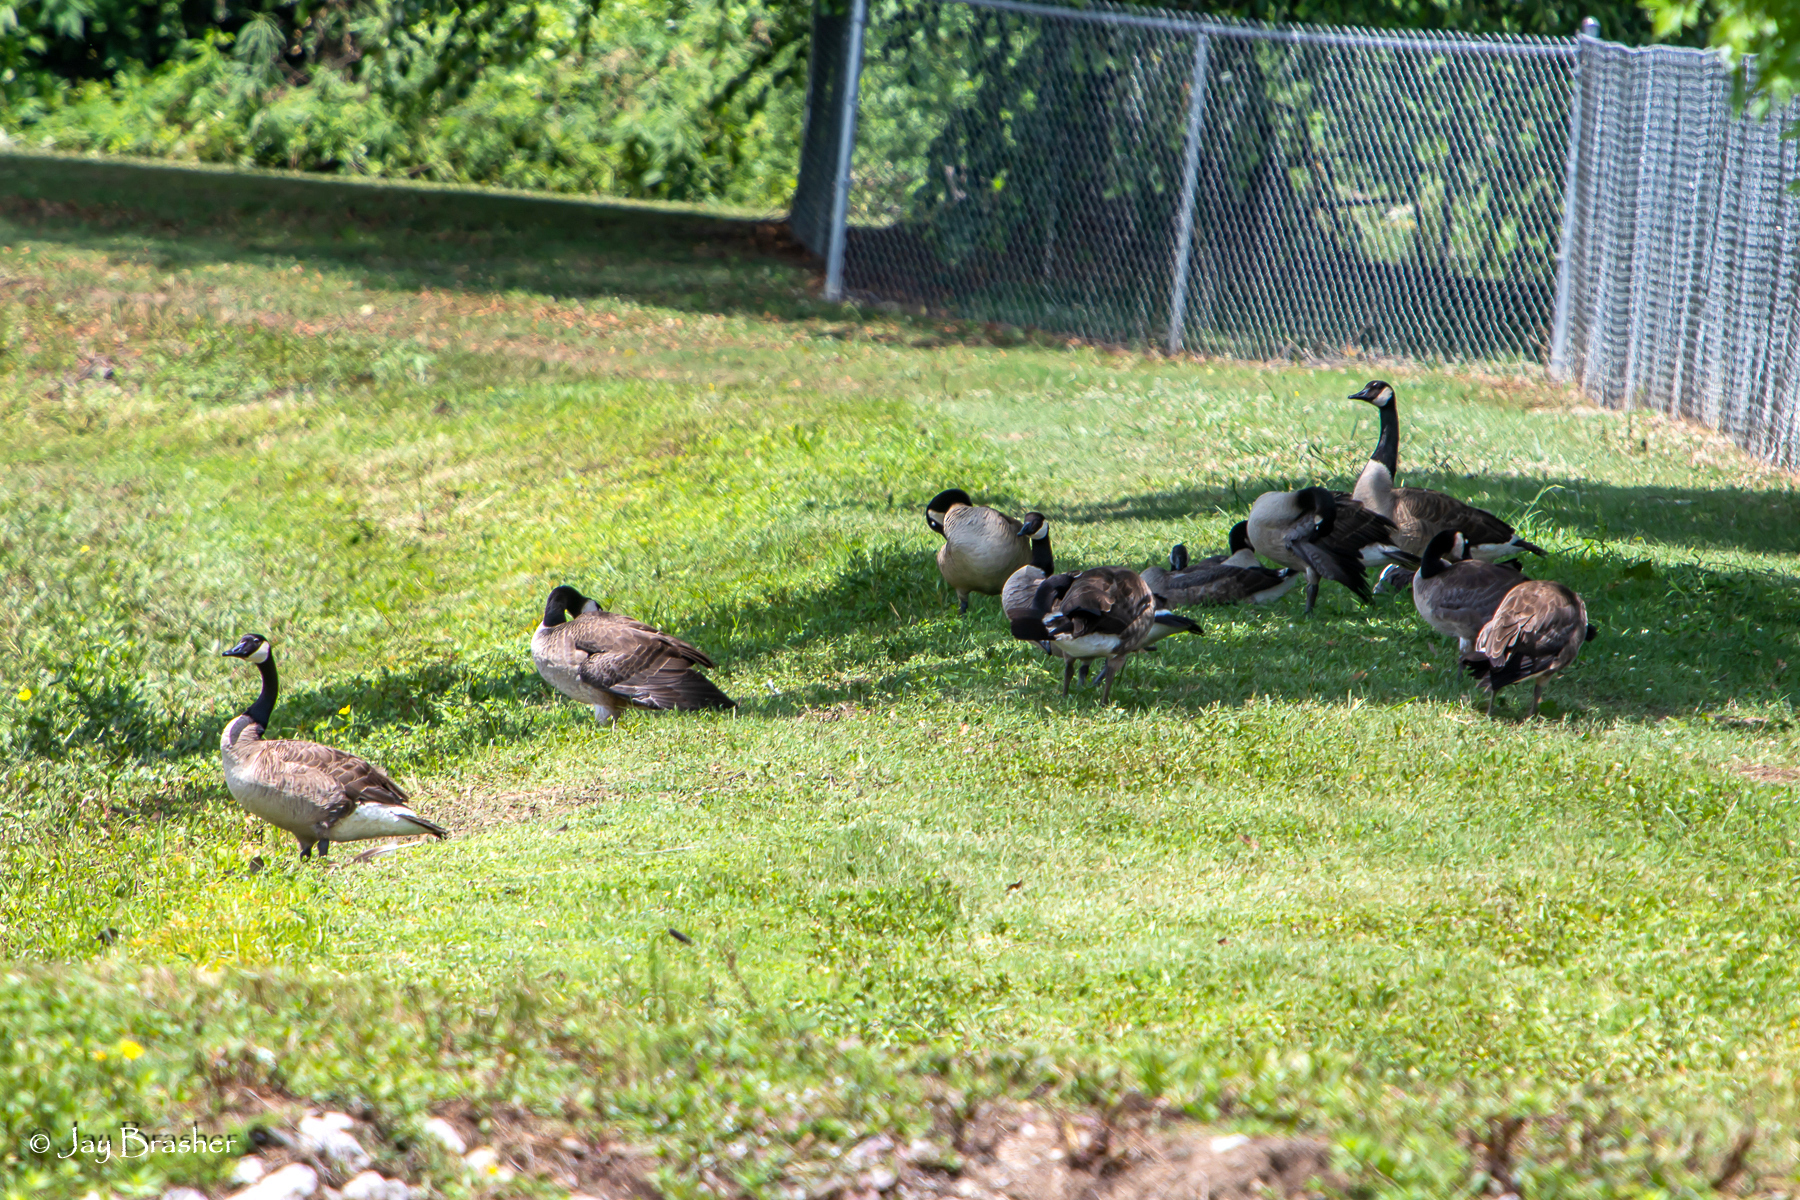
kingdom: Animalia
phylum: Chordata
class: Aves
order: Anseriformes
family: Anatidae
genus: Branta
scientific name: Branta canadensis
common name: Canada goose
